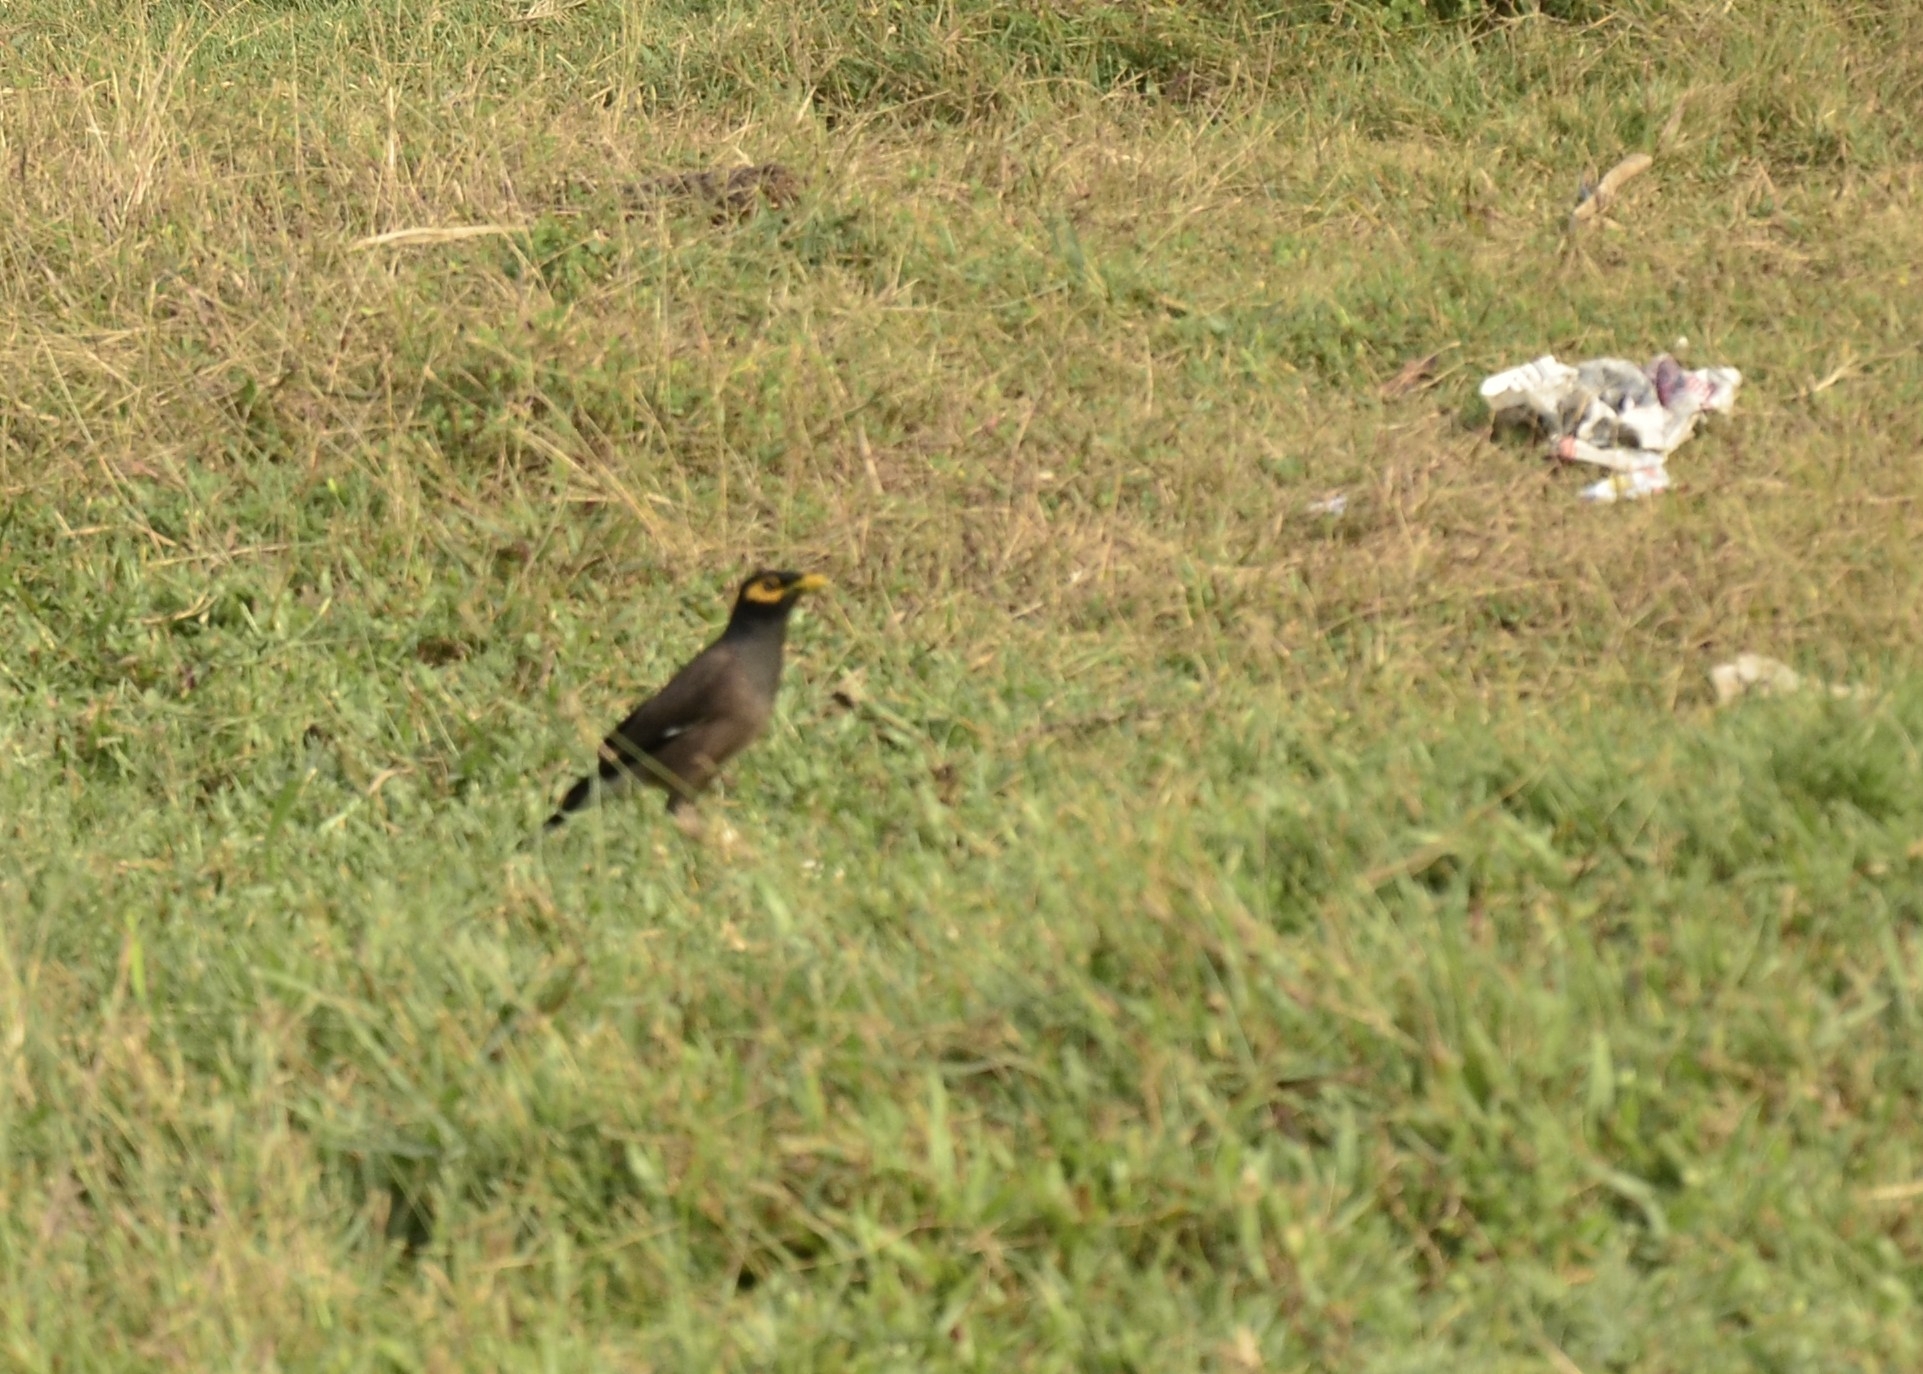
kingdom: Animalia
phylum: Chordata
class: Aves
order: Passeriformes
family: Sturnidae
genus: Acridotheres
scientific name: Acridotheres tristis
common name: Common myna
